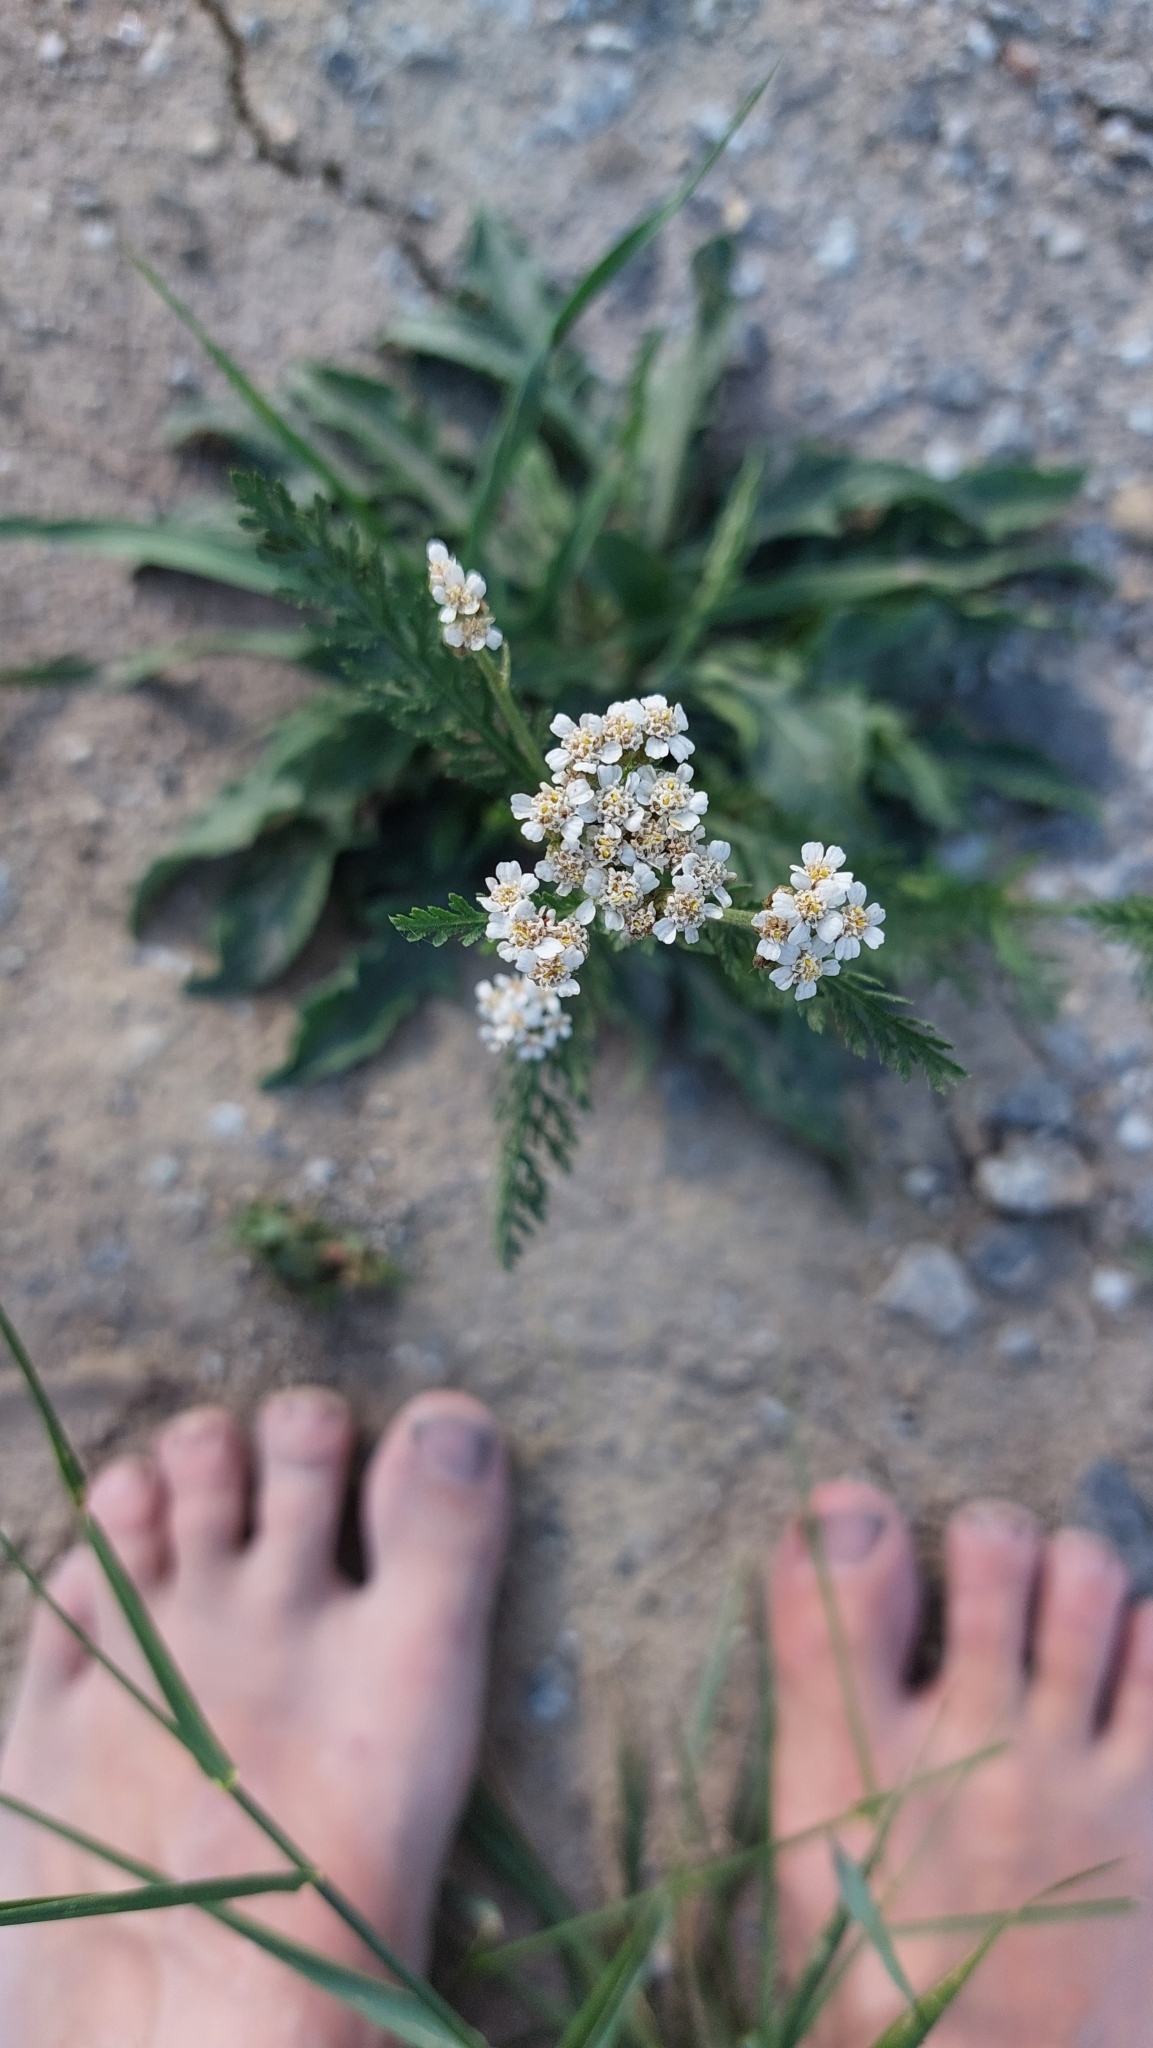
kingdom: Plantae
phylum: Tracheophyta
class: Magnoliopsida
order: Asterales
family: Asteraceae
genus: Achillea
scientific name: Achillea millefolium
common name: Yarrow
